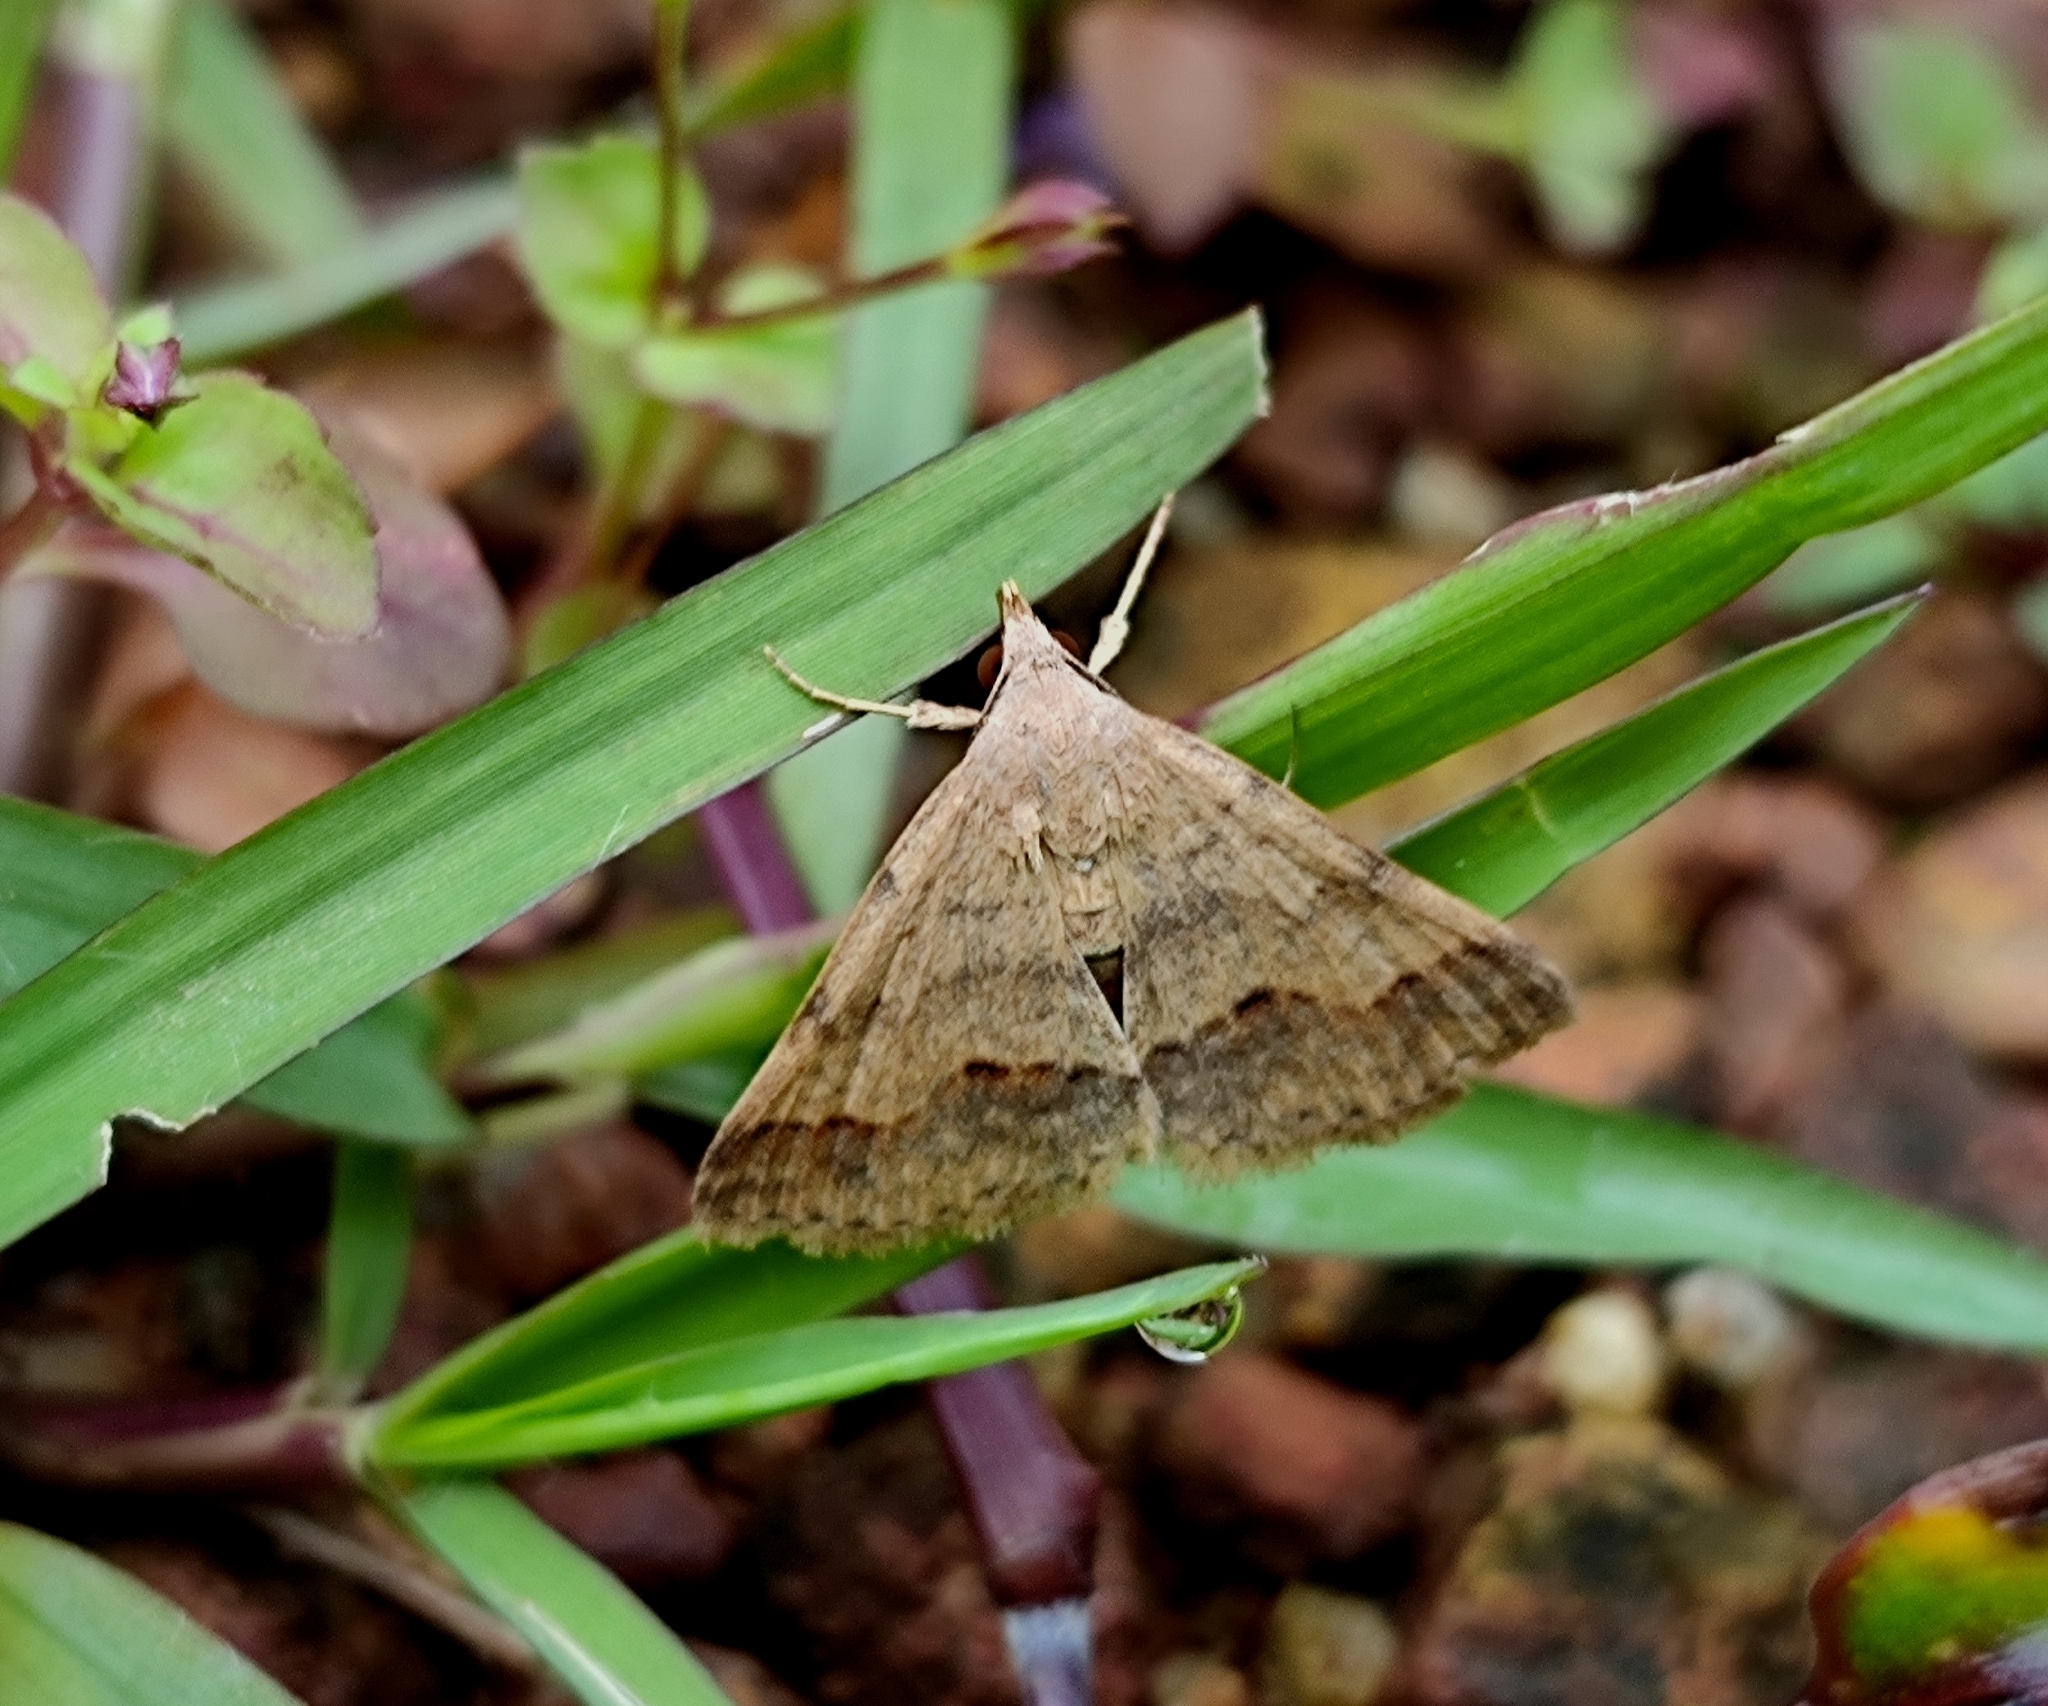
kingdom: Animalia
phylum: Arthropoda
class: Insecta
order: Lepidoptera
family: Erebidae
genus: Gesonia
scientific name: Gesonia obeditalis
